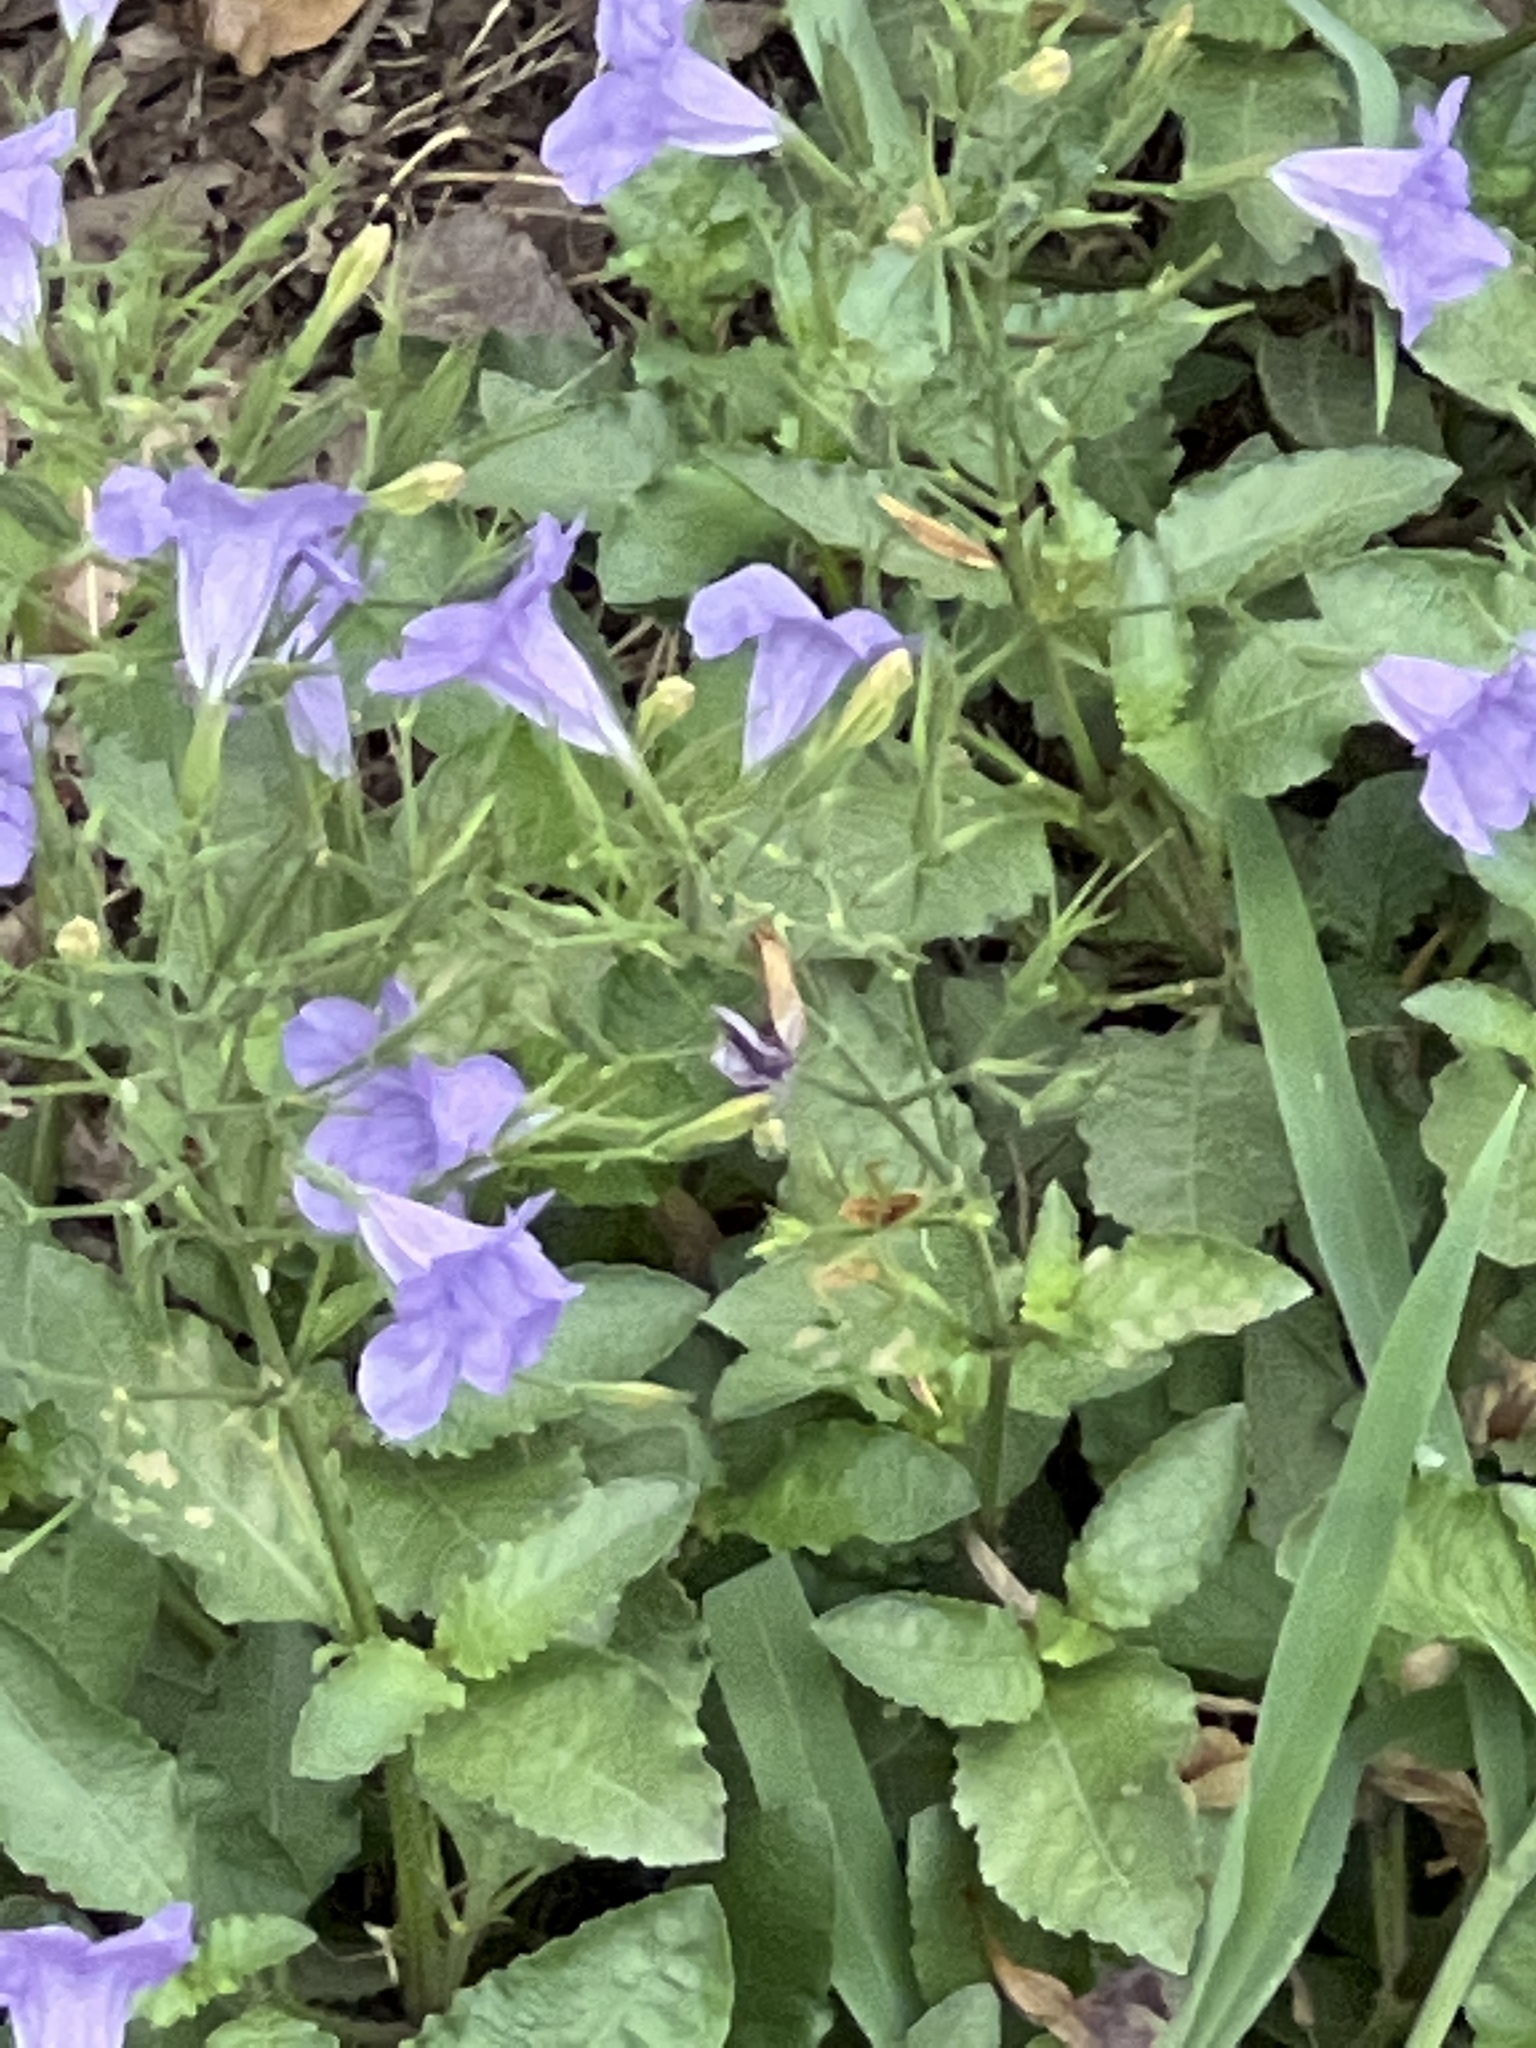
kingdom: Plantae
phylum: Tracheophyta
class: Magnoliopsida
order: Lamiales
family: Acanthaceae
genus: Ruellia
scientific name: Ruellia ciliatiflora
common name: Hairyflower wild petunia
